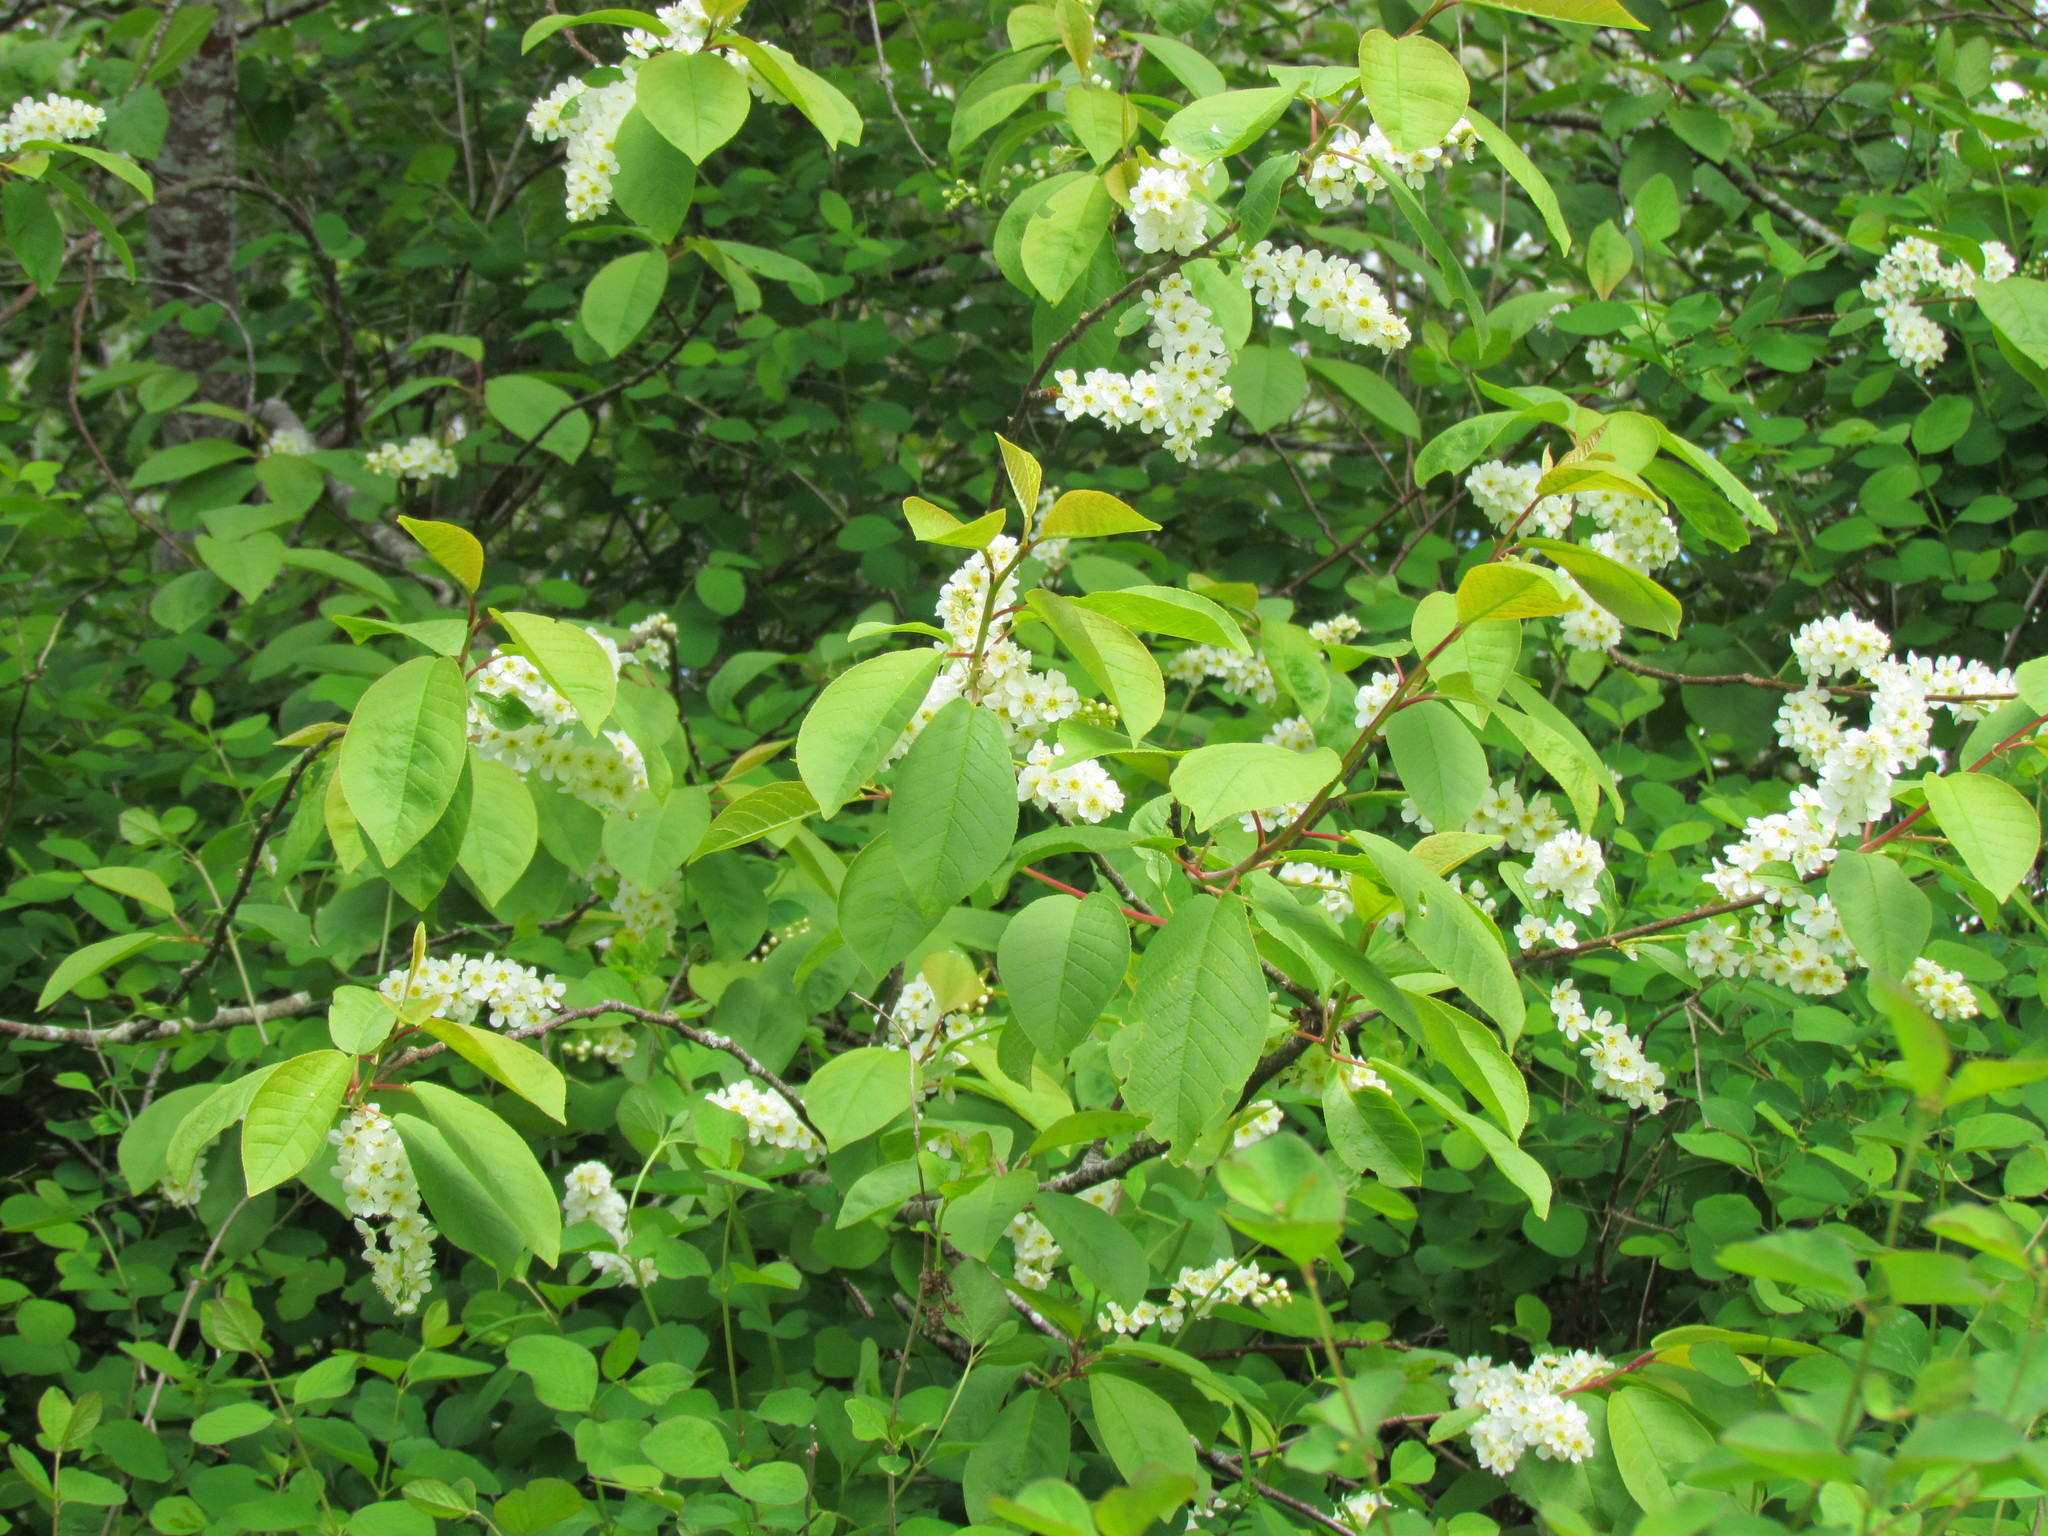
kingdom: Plantae
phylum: Tracheophyta
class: Magnoliopsida
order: Rosales
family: Rosaceae
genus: Prunus
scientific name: Prunus padus
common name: Bird cherry
